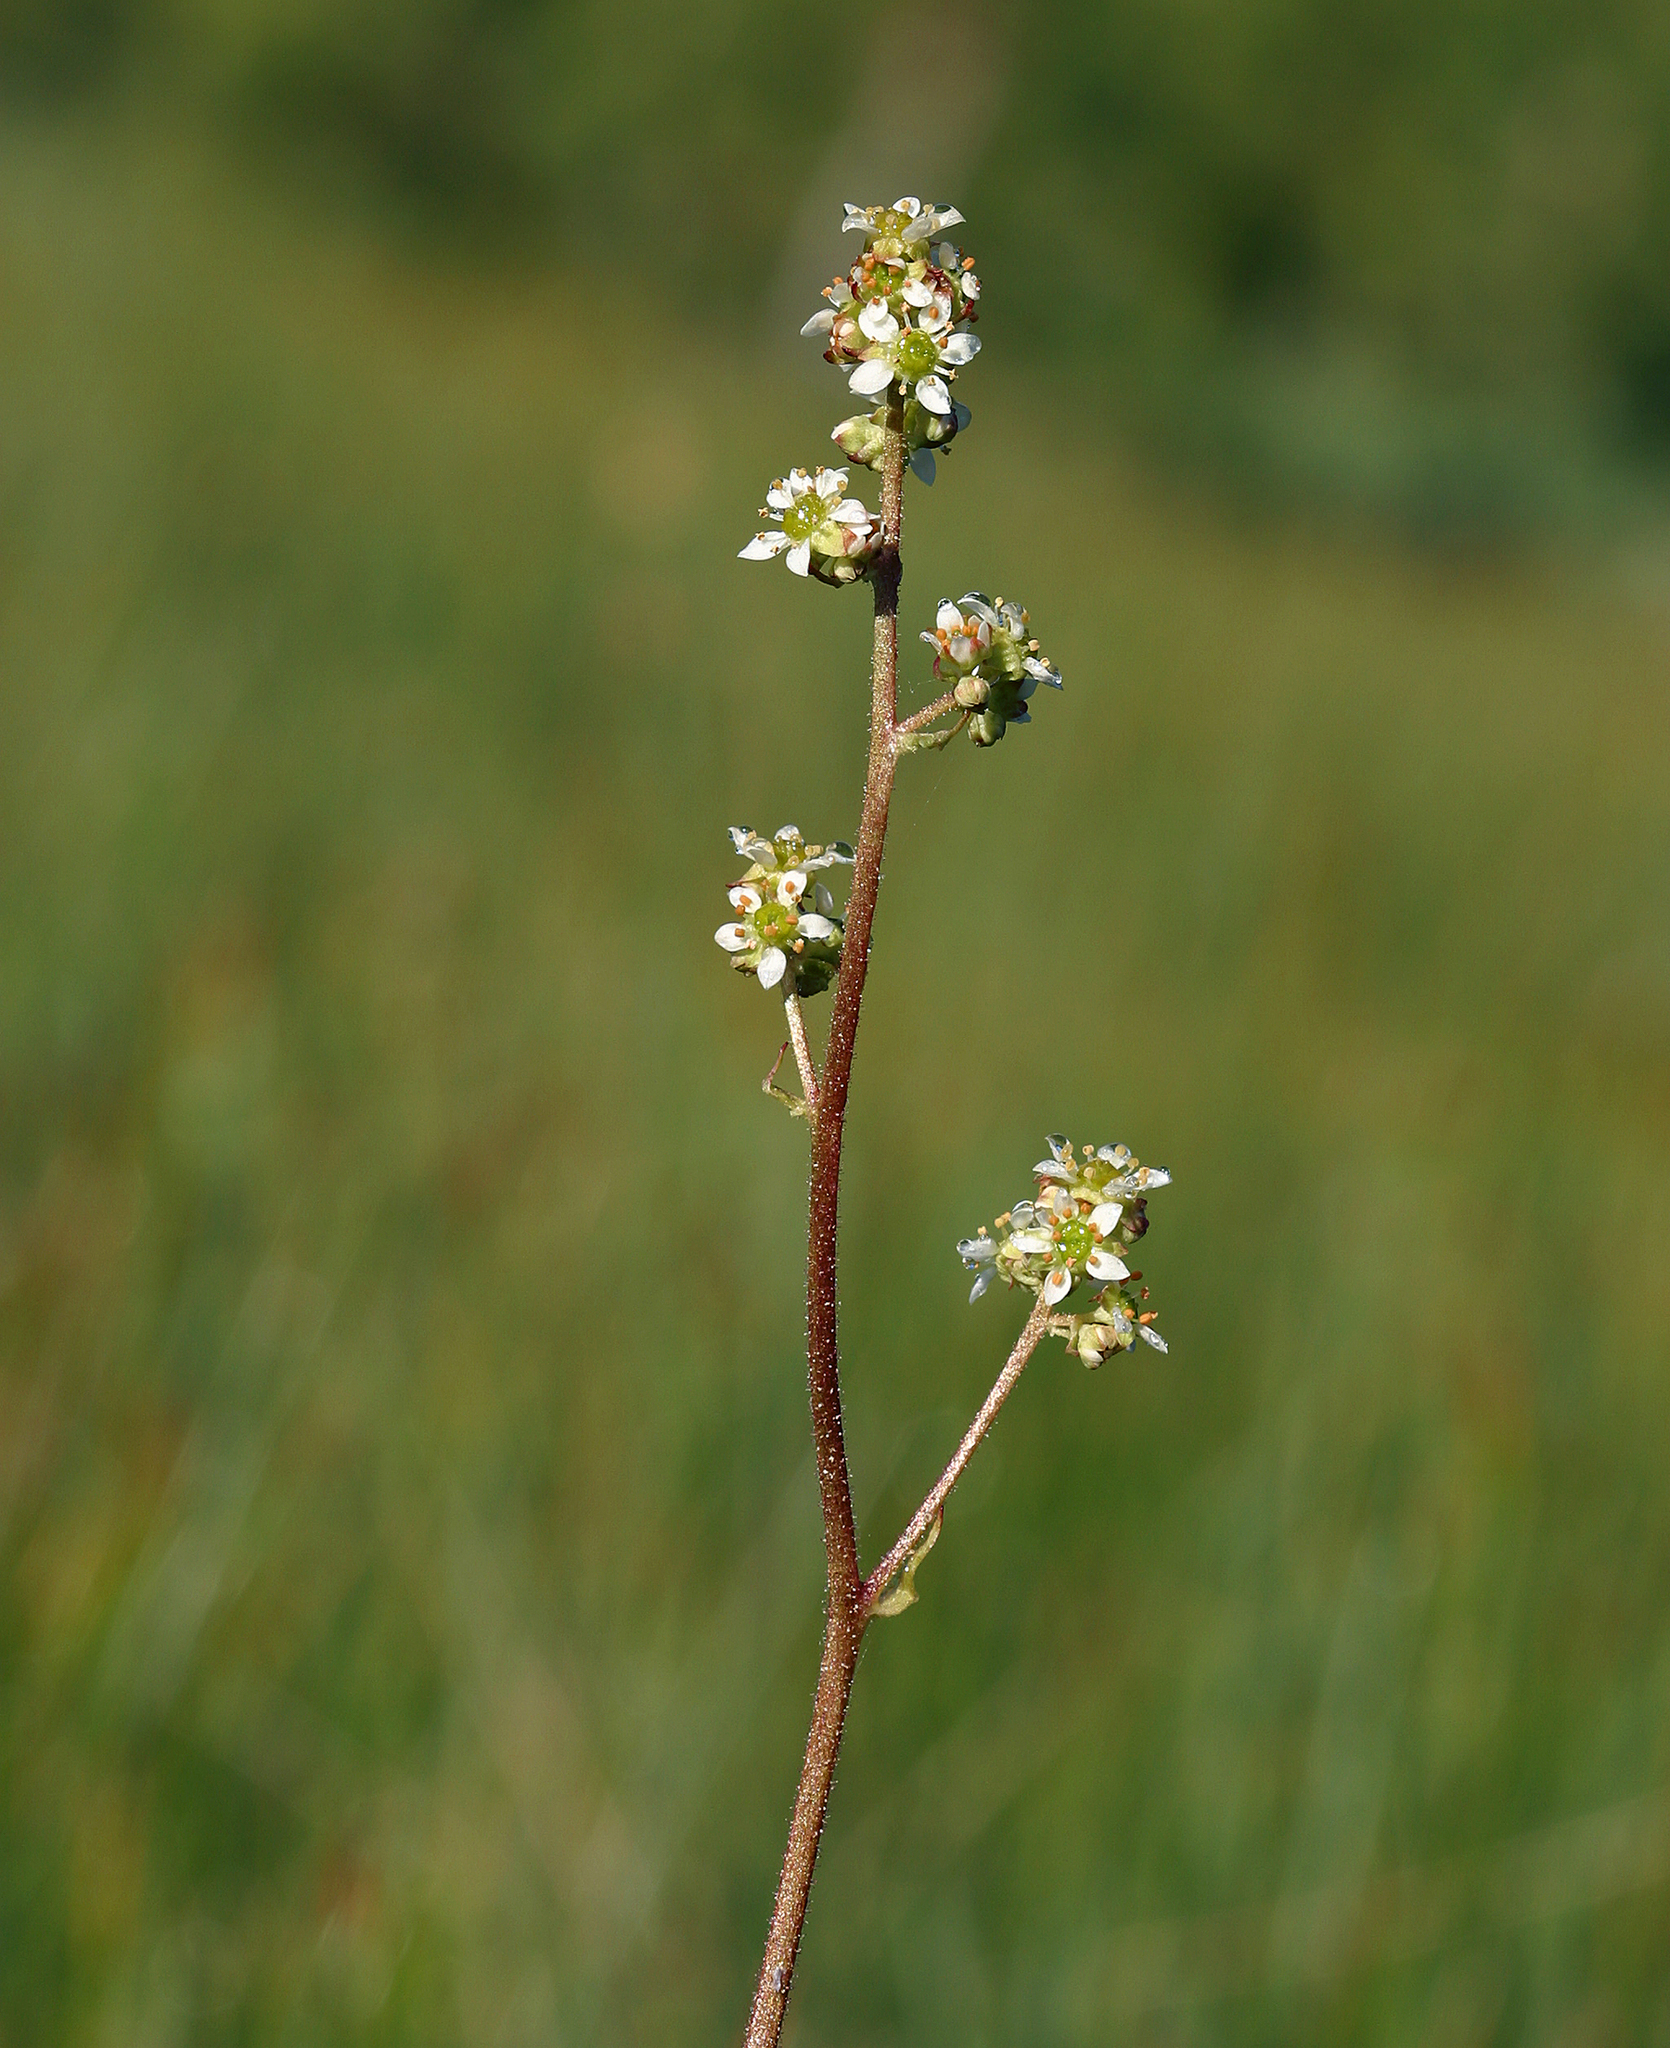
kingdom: Plantae
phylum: Tracheophyta
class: Magnoliopsida
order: Saxifragales
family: Saxifragaceae
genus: Micranthes
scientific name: Micranthes oregana
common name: Bog saxifrage
